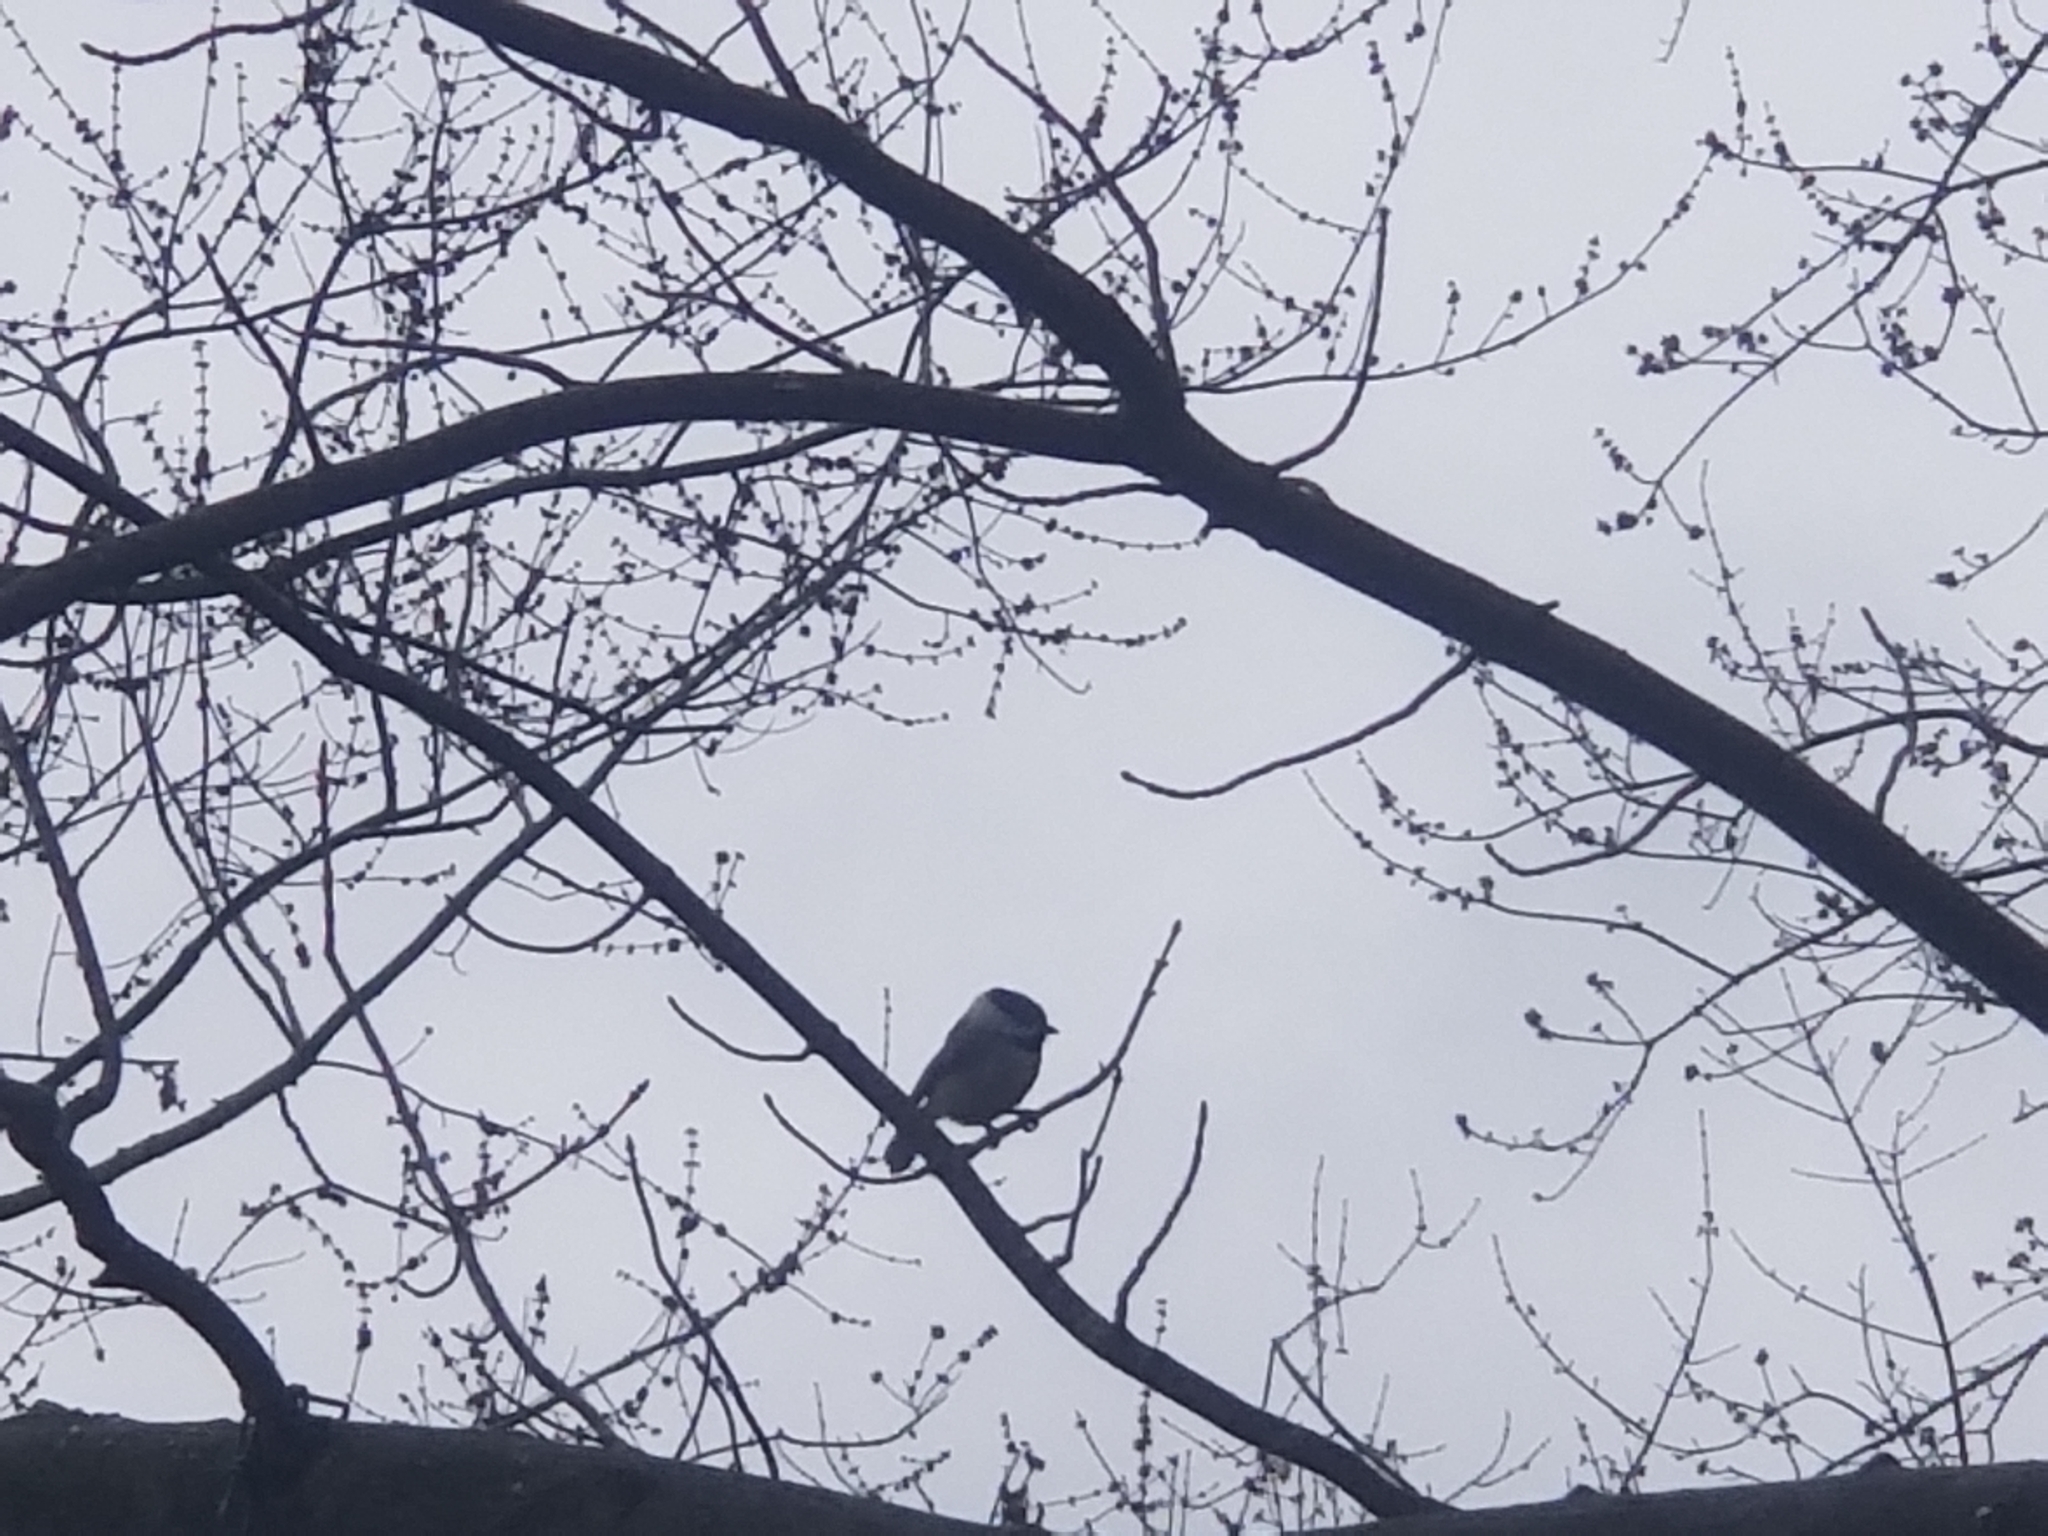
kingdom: Animalia
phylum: Chordata
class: Aves
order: Passeriformes
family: Paridae
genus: Poecile
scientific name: Poecile carolinensis
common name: Carolina chickadee
